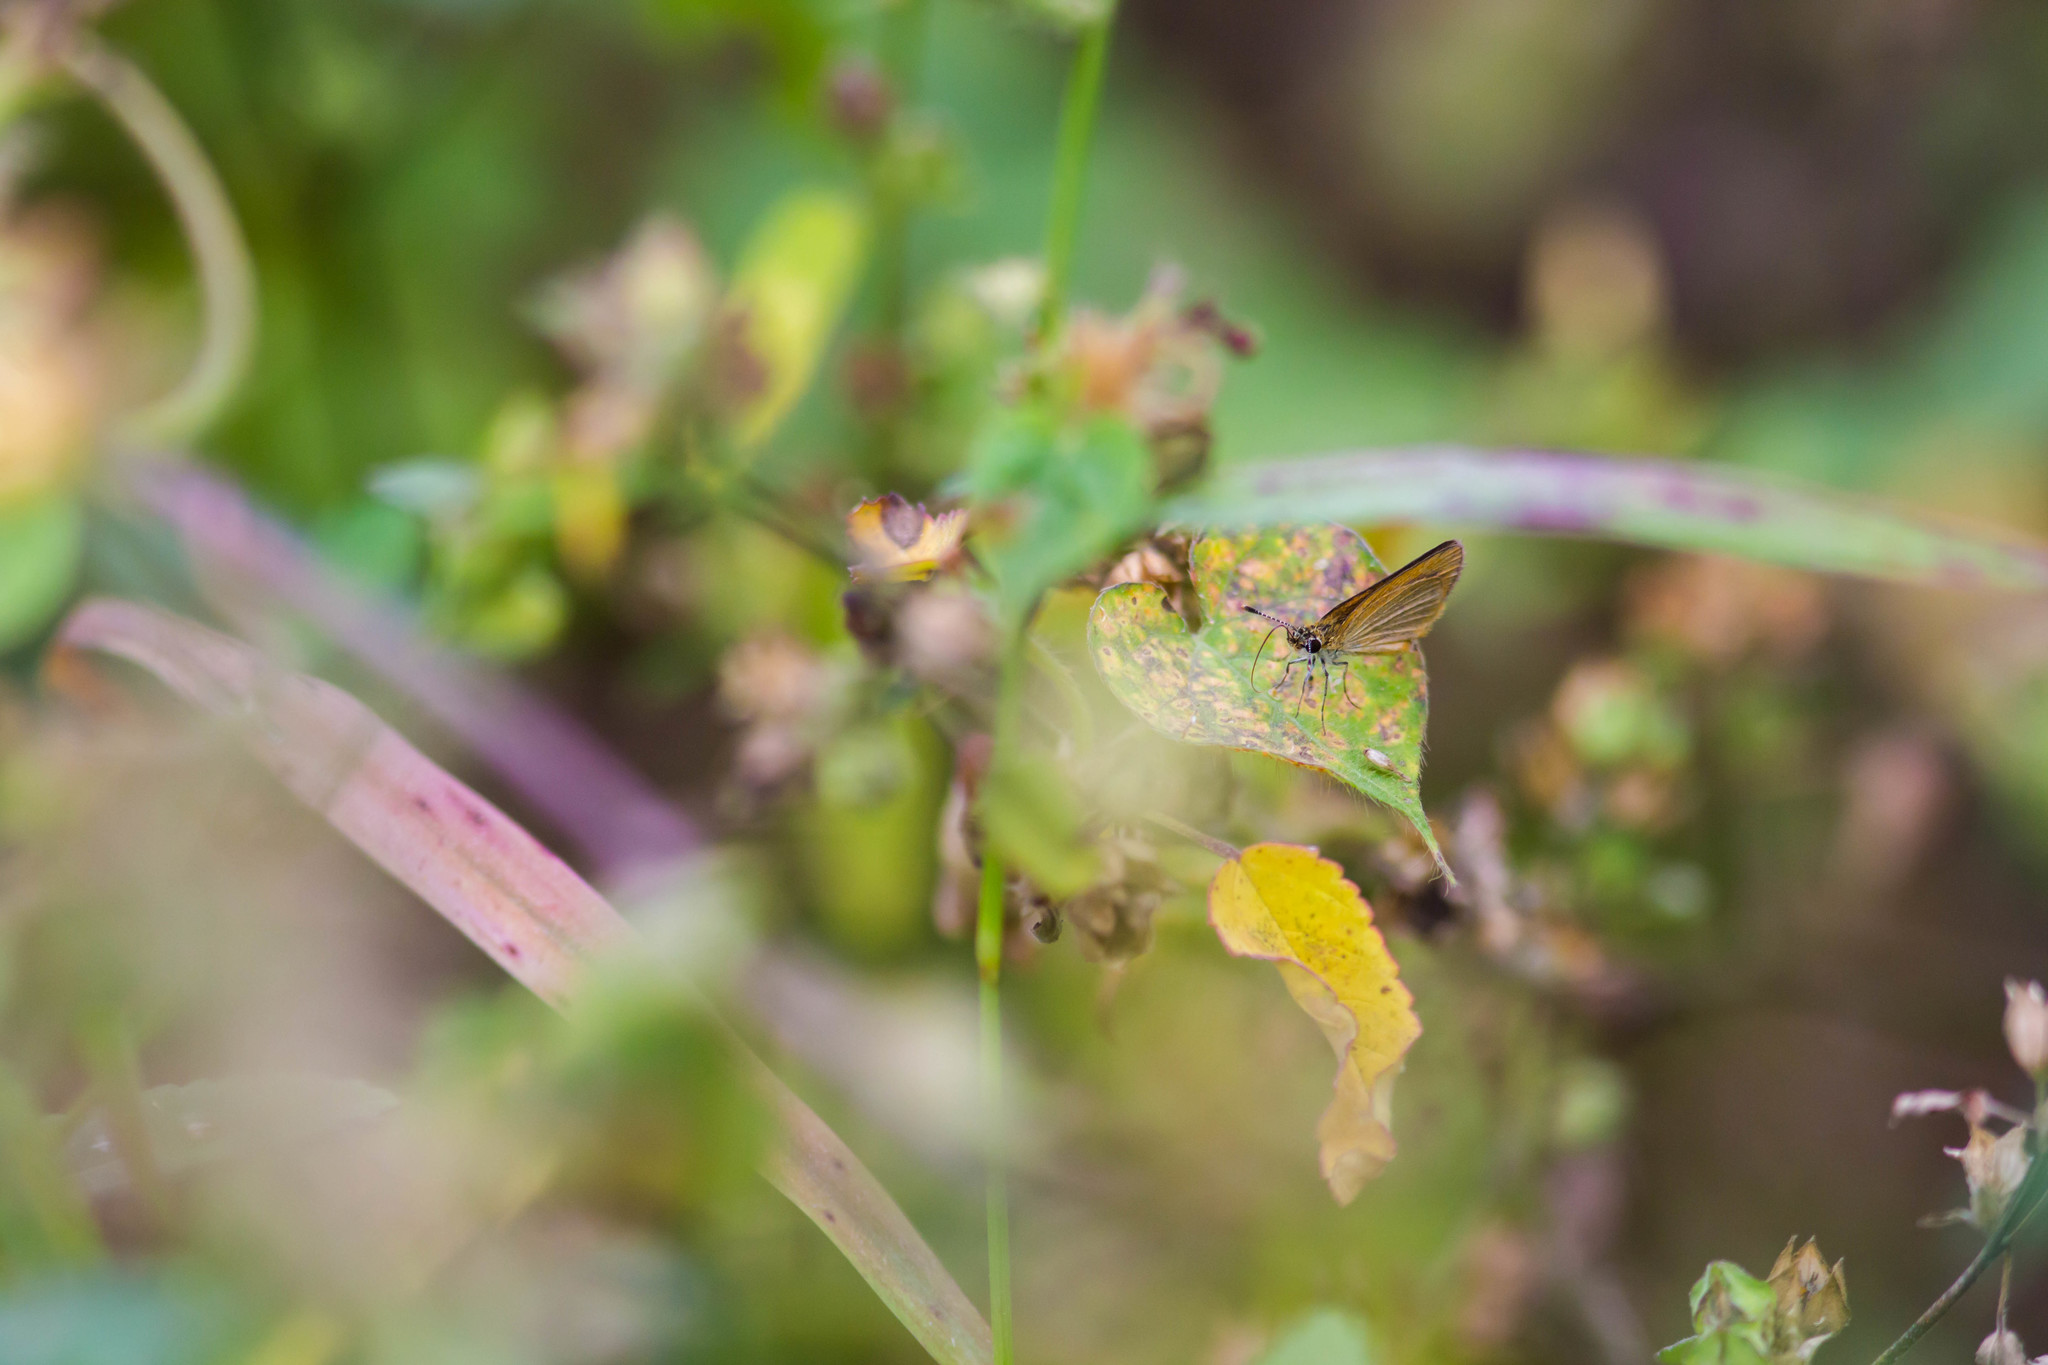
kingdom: Animalia
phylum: Arthropoda
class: Insecta
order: Lepidoptera
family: Hesperiidae
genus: Ancyloxypha
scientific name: Ancyloxypha numitor
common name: Least skipper
